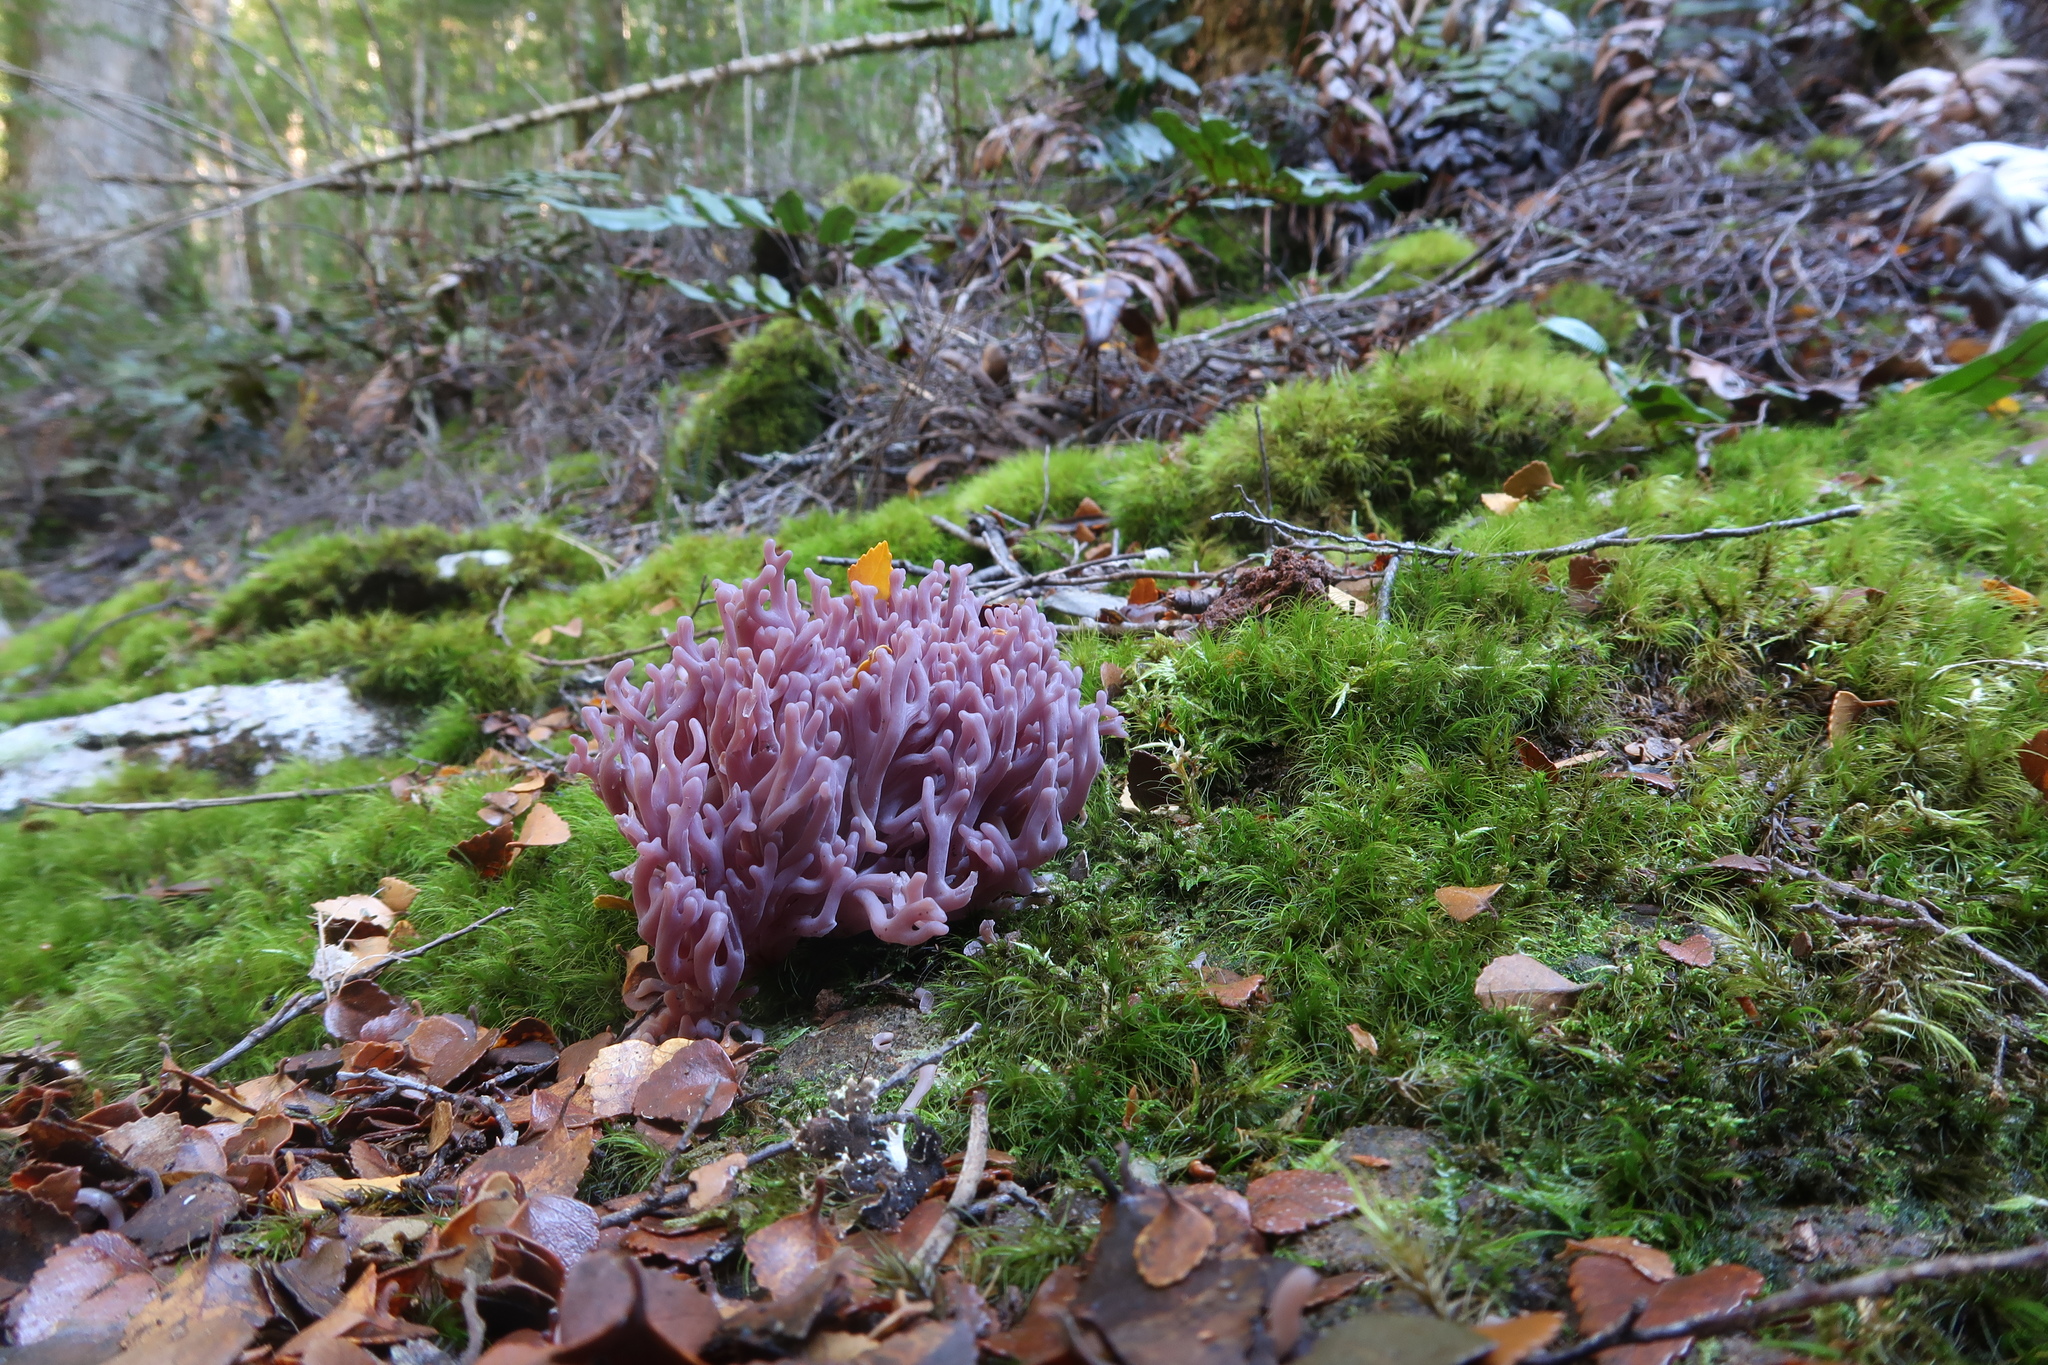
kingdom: Fungi
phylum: Basidiomycota
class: Agaricomycetes
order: Agaricales
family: Clavariaceae
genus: Clavaria
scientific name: Clavaria zollingeri
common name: Violet coral
